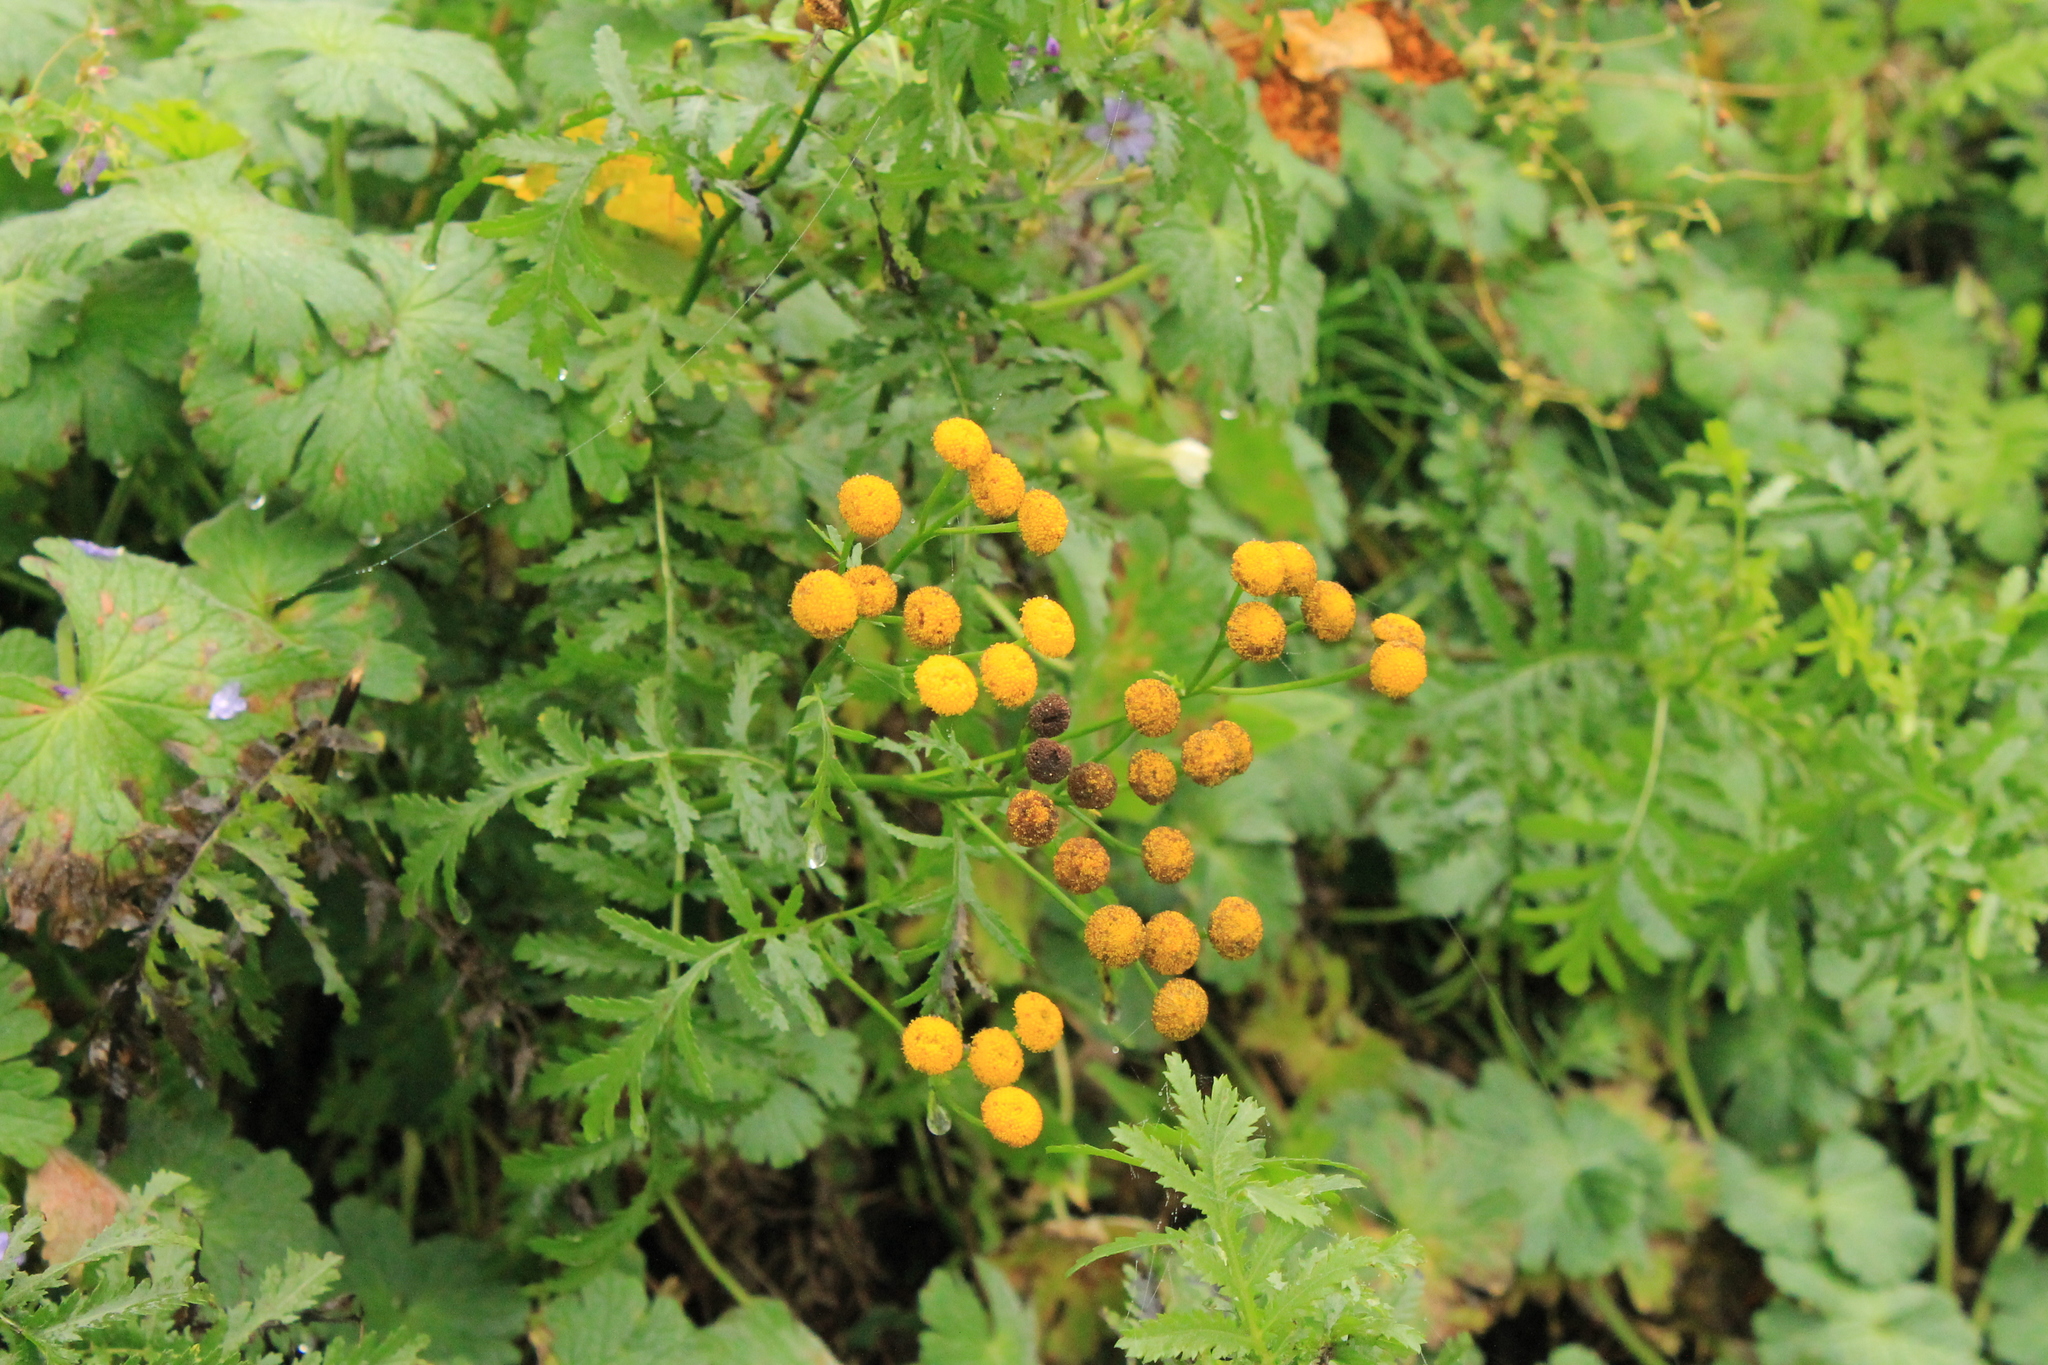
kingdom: Plantae
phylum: Tracheophyta
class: Magnoliopsida
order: Asterales
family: Asteraceae
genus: Tanacetum
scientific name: Tanacetum vulgare
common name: Common tansy
